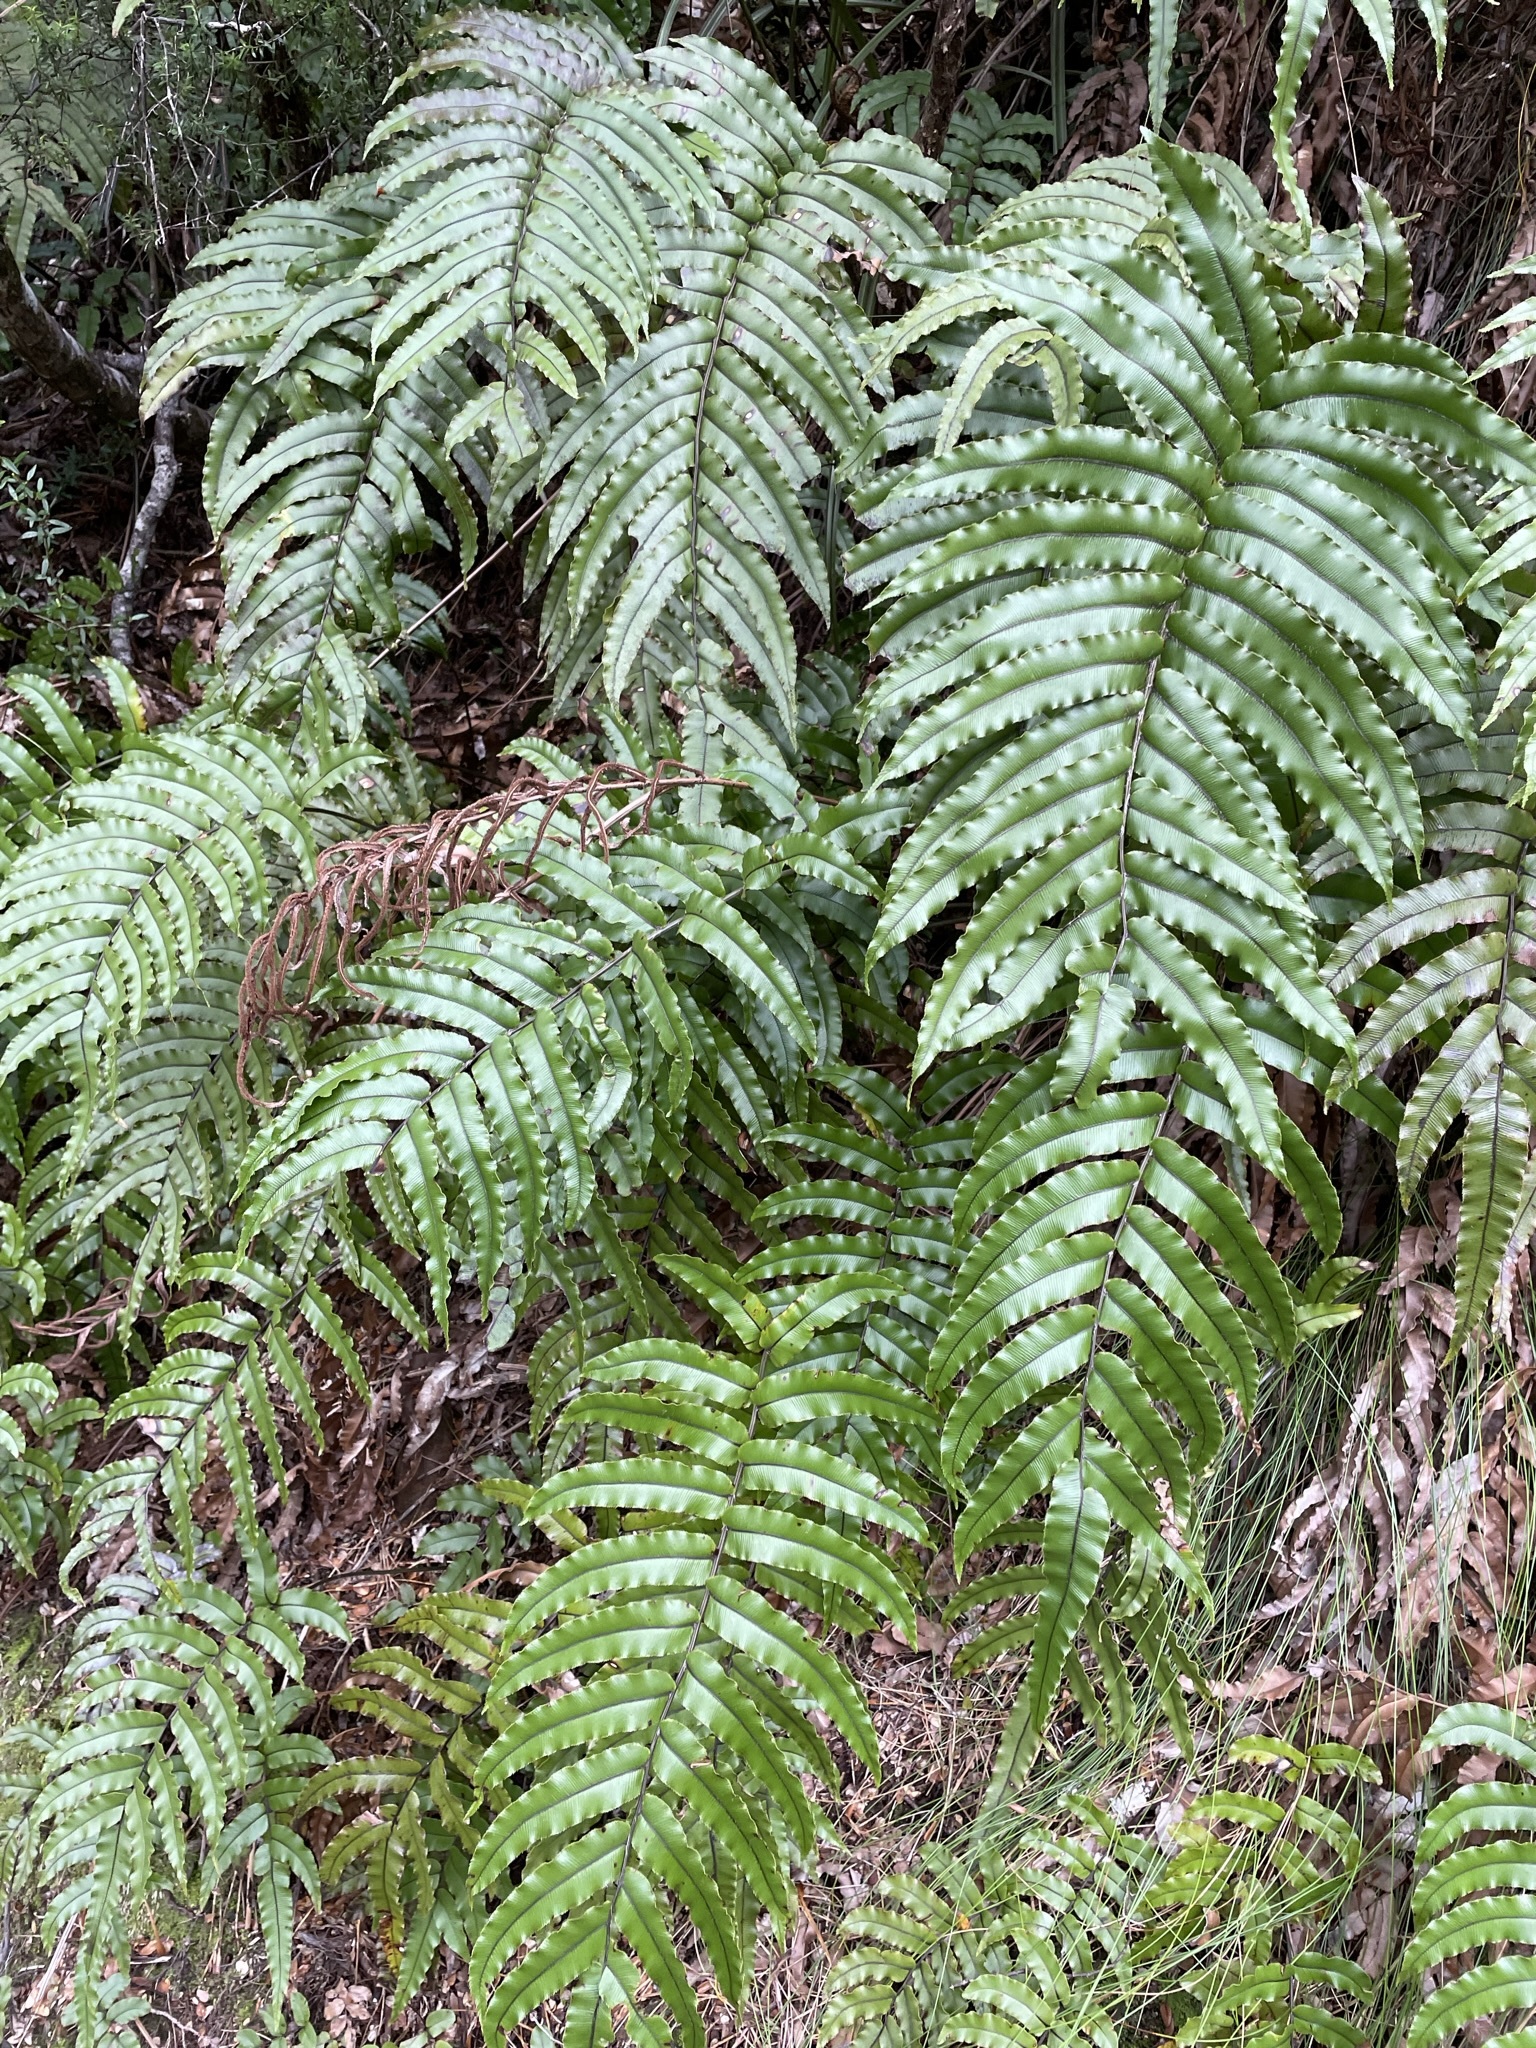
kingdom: Plantae
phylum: Tracheophyta
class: Polypodiopsida
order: Polypodiales
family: Blechnaceae
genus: Parablechnum
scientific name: Parablechnum montanum
